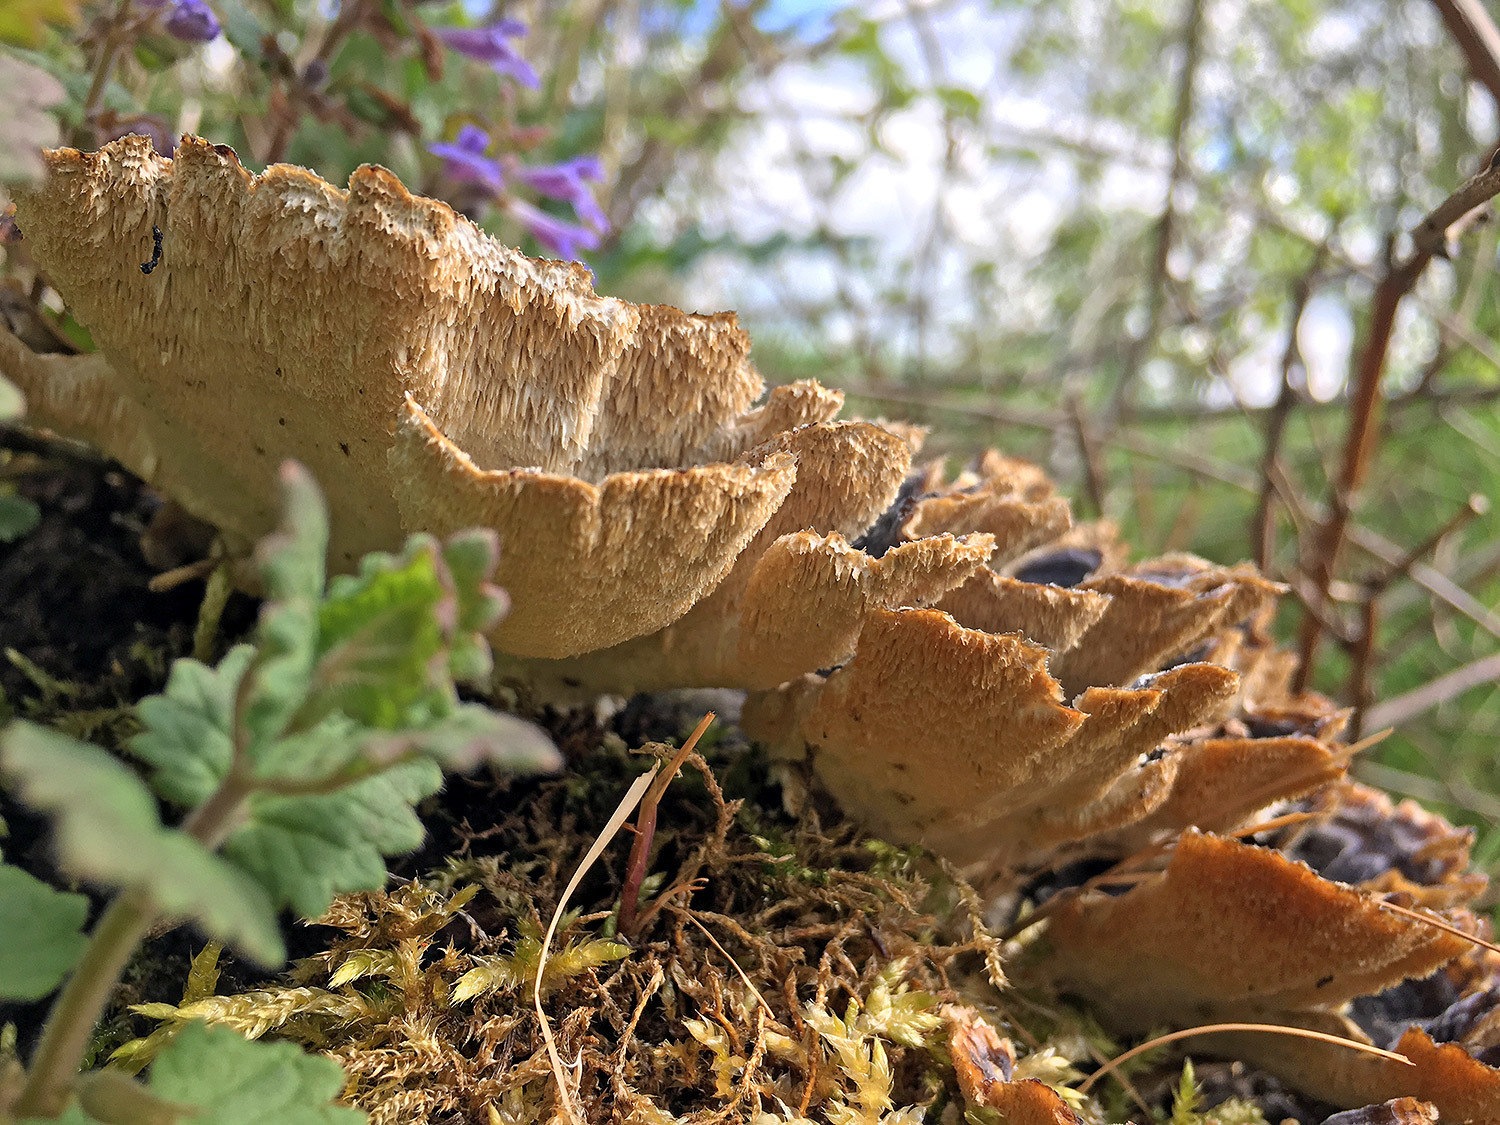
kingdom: Fungi
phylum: Basidiomycota
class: Agaricomycetes
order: Polyporales
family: Polyporaceae
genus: Trametes
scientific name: Trametes versicolor
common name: Turkeytail
